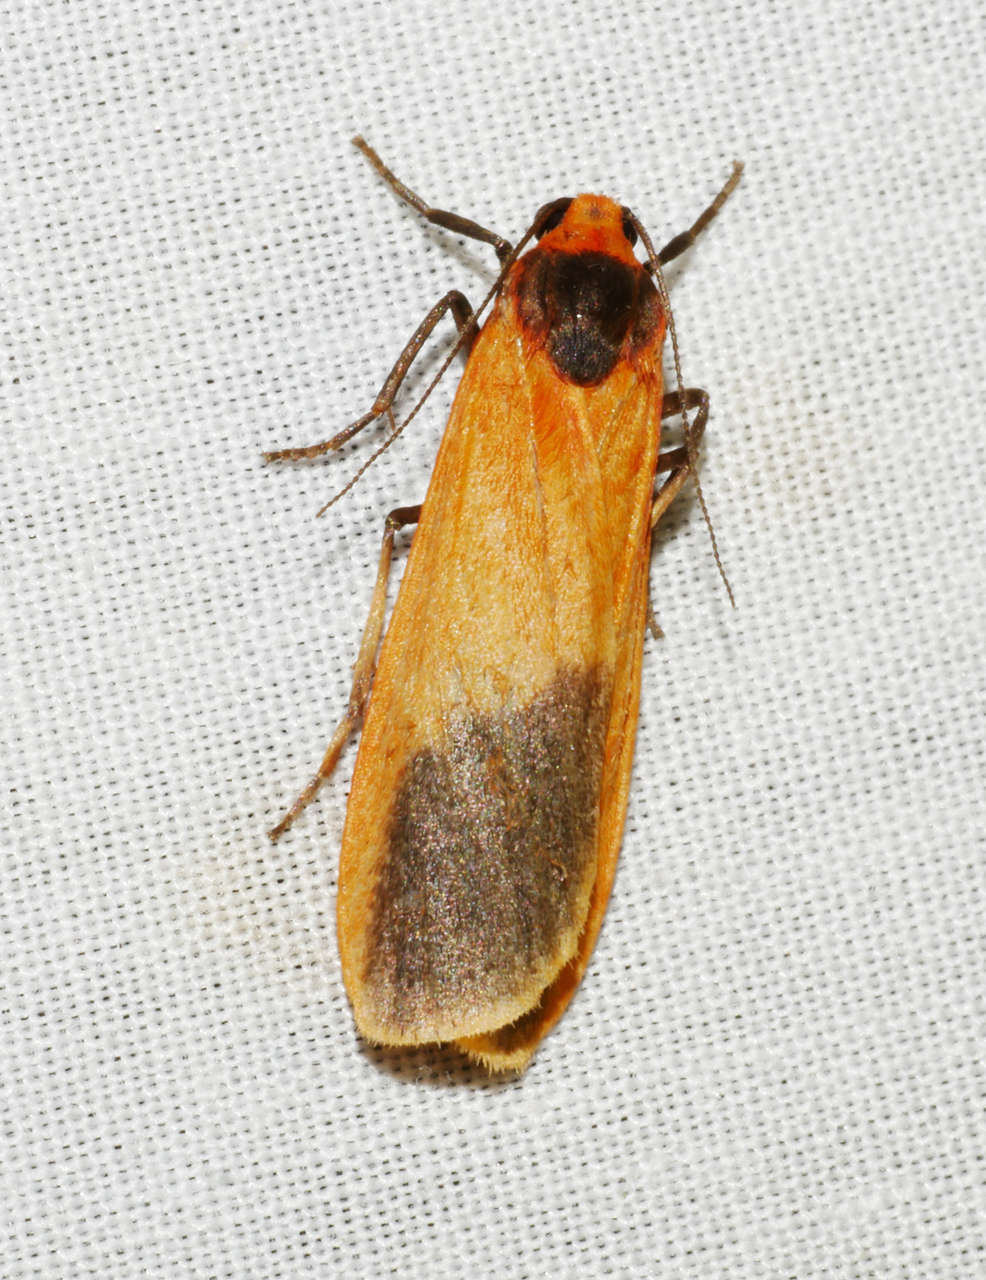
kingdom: Animalia
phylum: Arthropoda
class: Insecta
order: Lepidoptera
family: Erebidae
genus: Scoliacma
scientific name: Scoliacma bicolora
